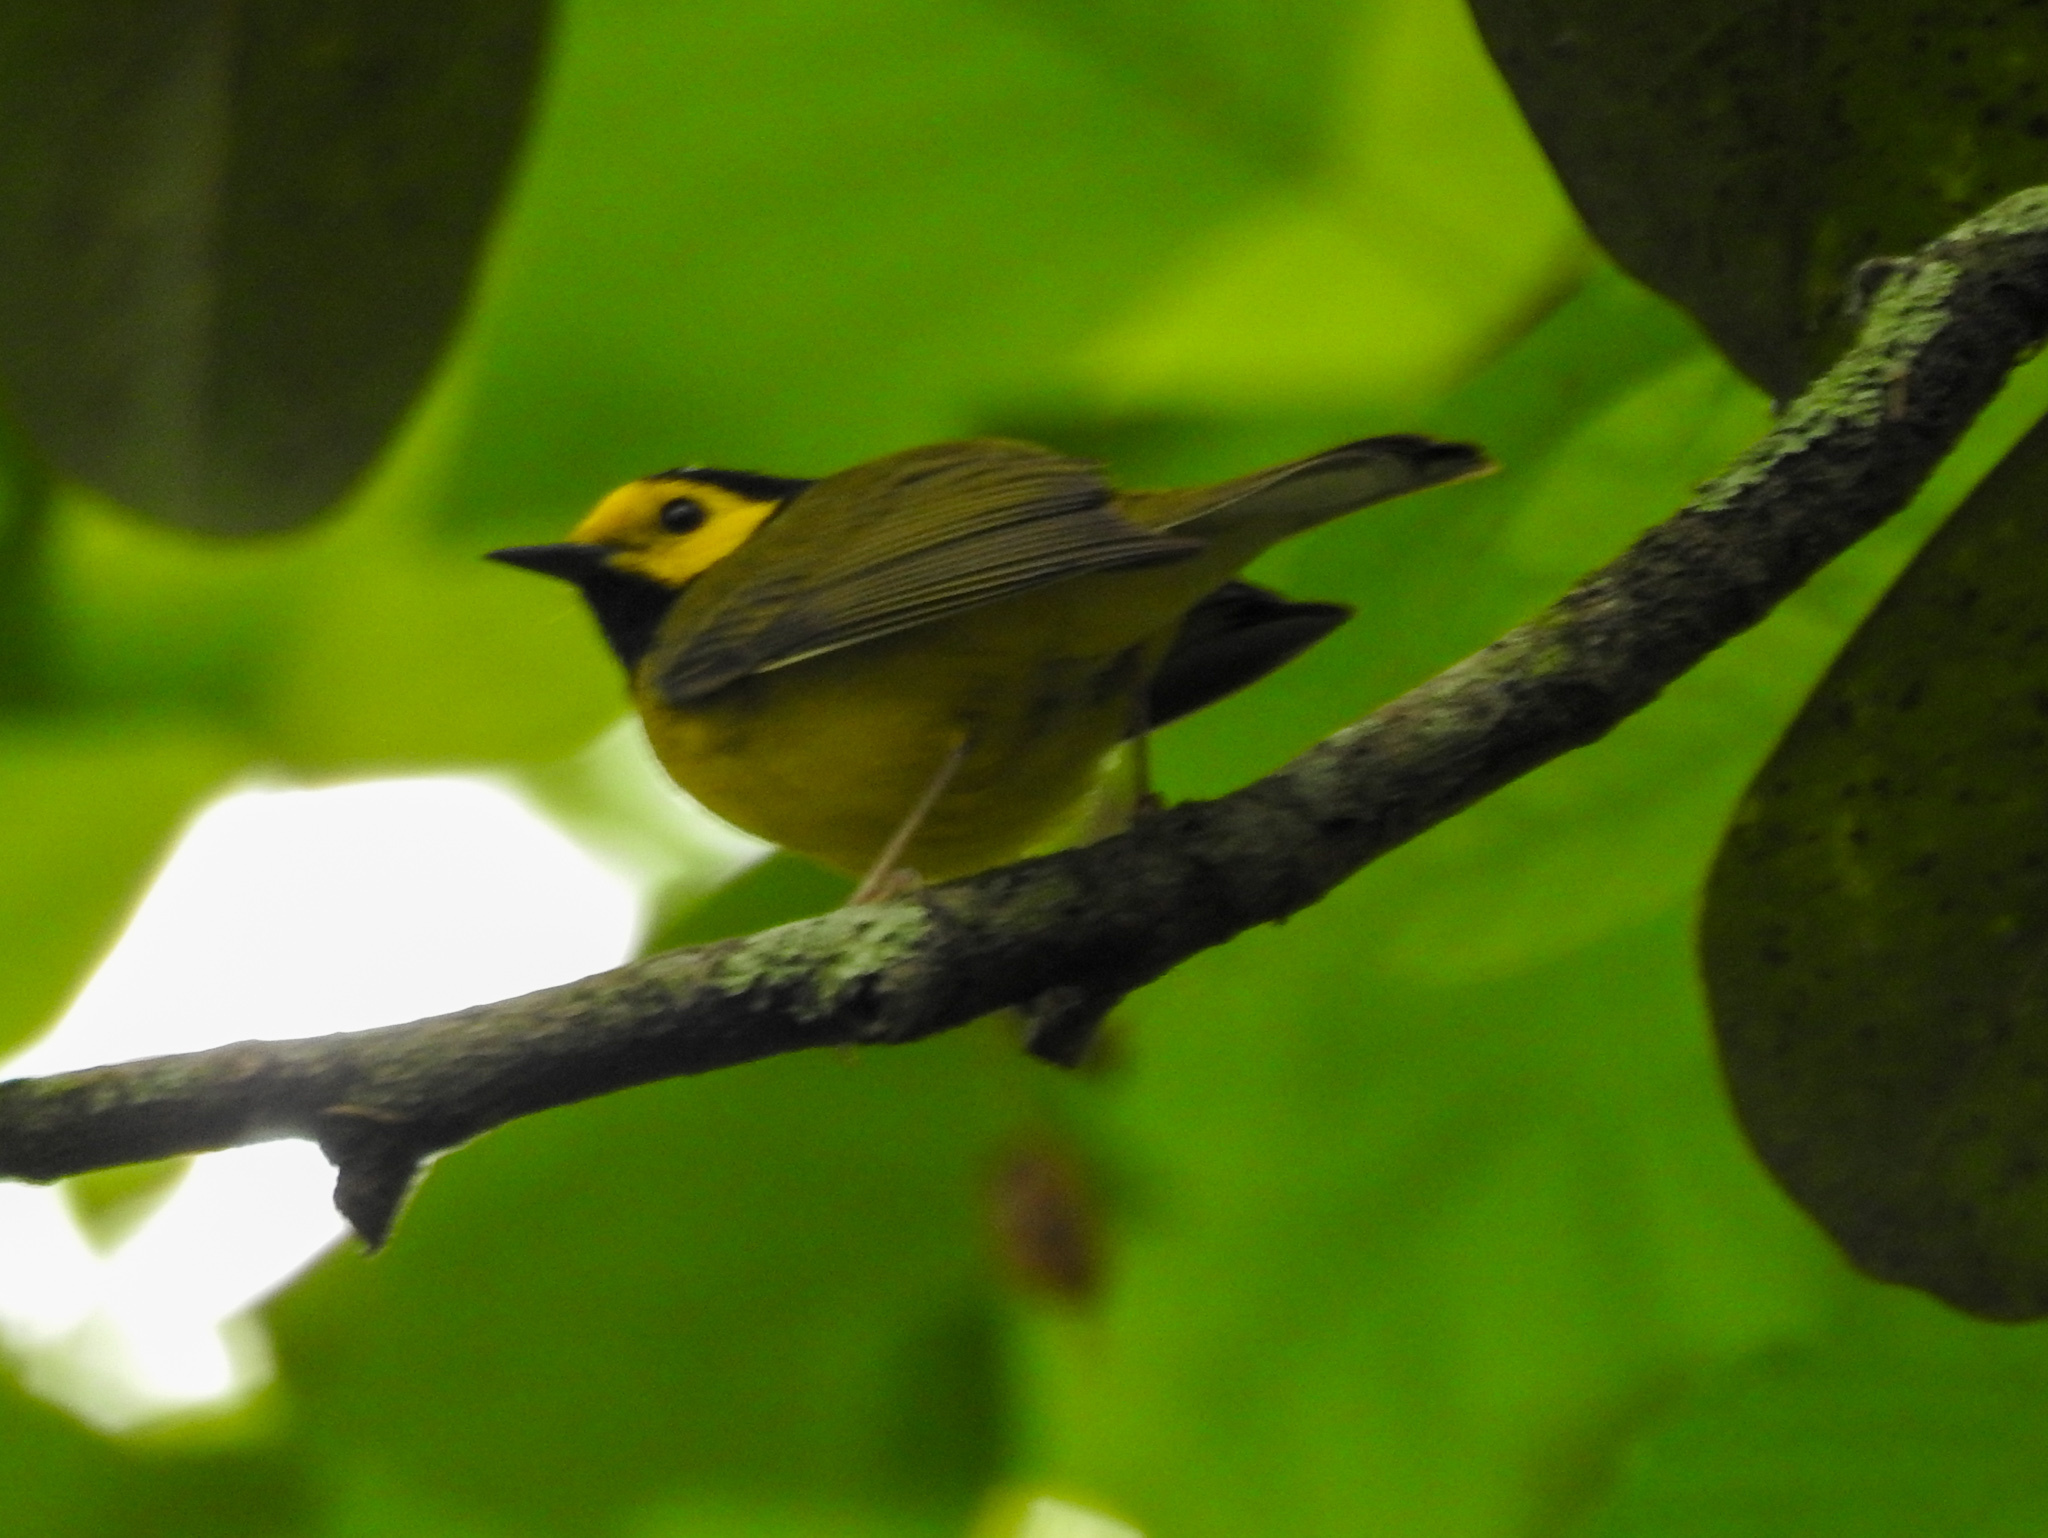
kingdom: Animalia
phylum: Chordata
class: Aves
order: Passeriformes
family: Parulidae
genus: Setophaga
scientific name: Setophaga citrina
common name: Hooded warbler
